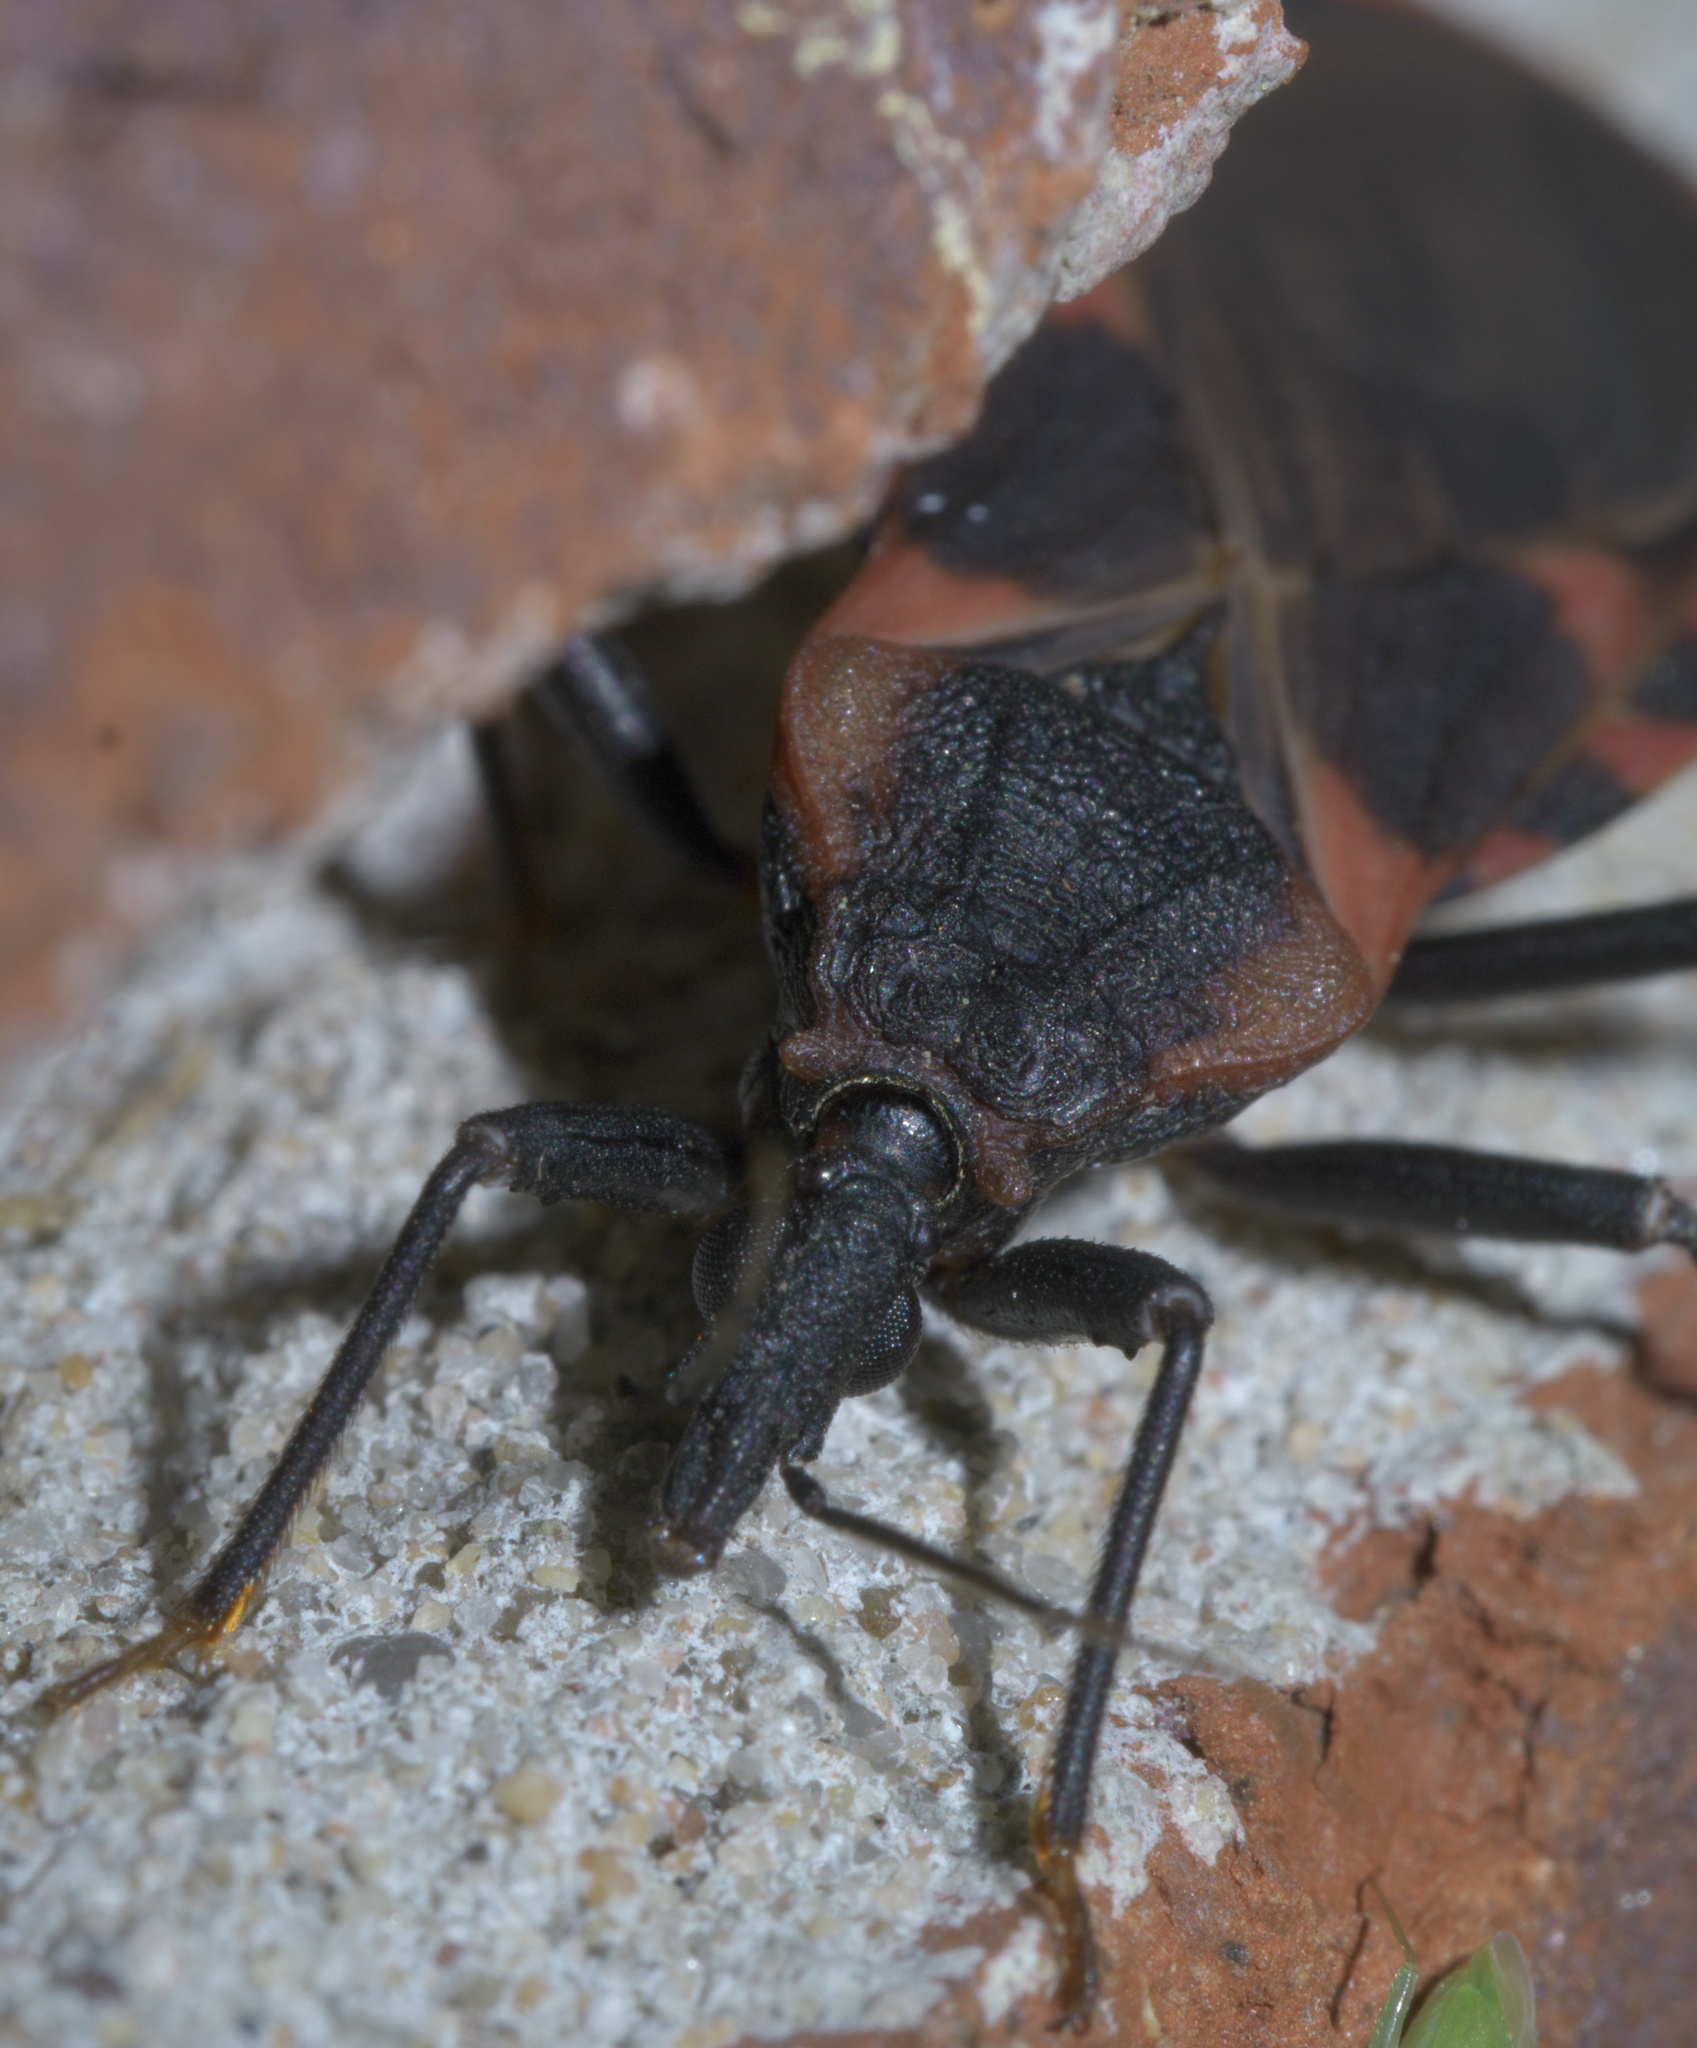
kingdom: Animalia
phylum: Arthropoda
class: Insecta
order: Hemiptera
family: Reduviidae
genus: Triatoma
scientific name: Triatoma sanguisuga
